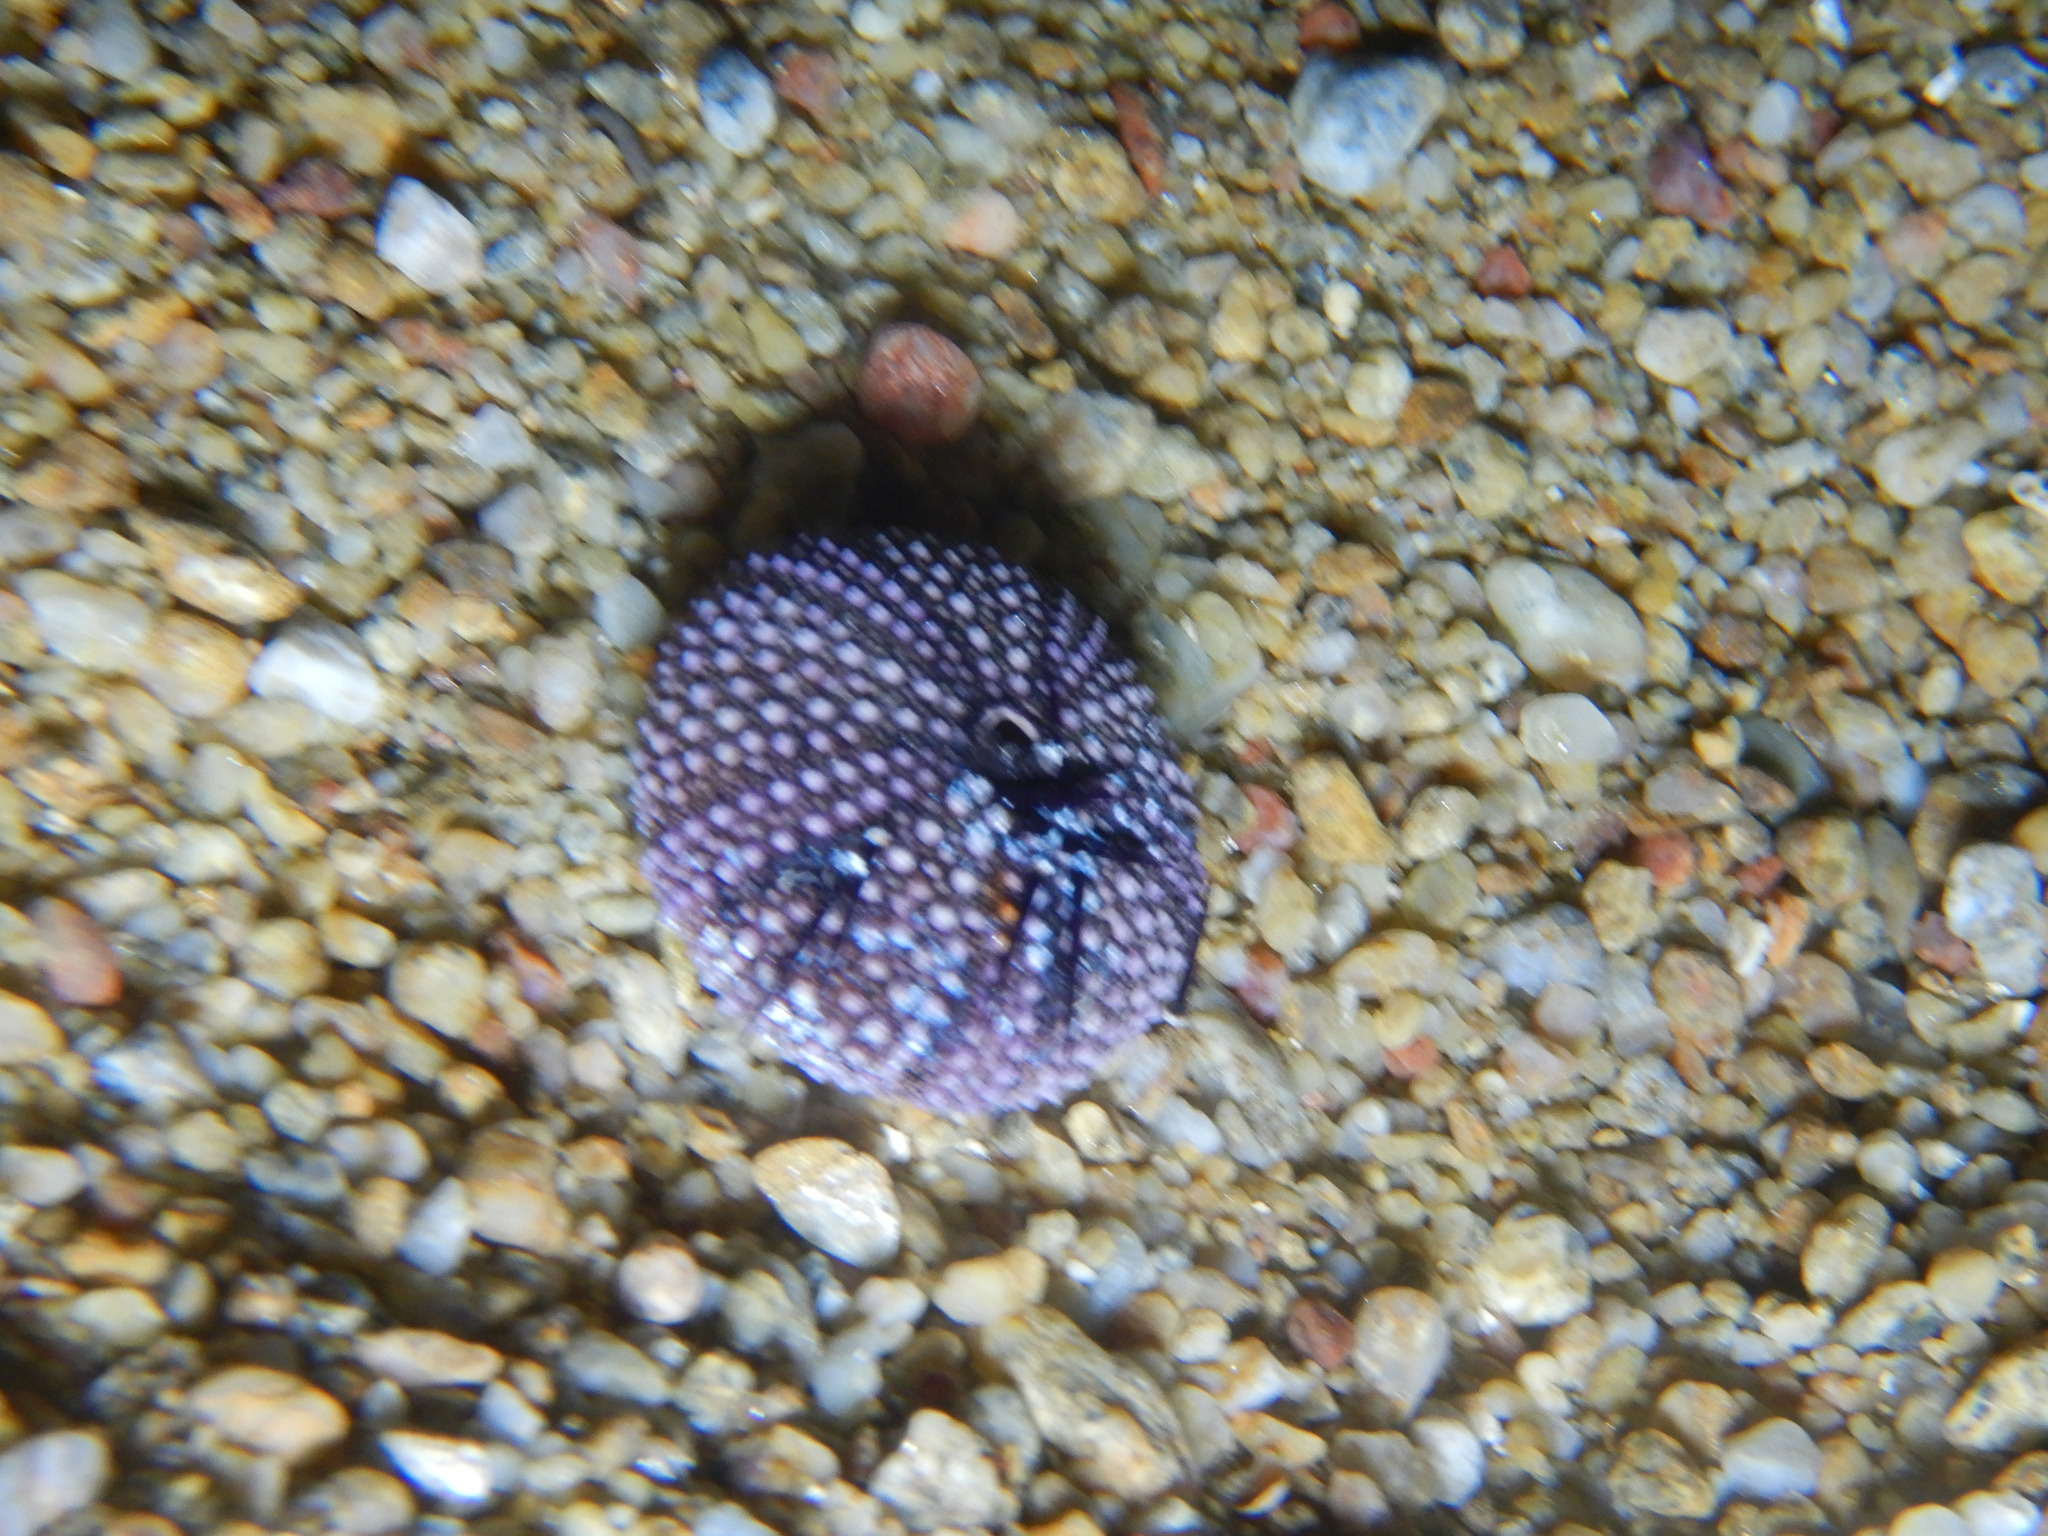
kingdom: Animalia
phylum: Echinodermata
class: Echinoidea
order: Camarodonta
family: Toxopneustidae
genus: Sphaerechinus
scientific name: Sphaerechinus granularis
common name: Violet sea urchin
